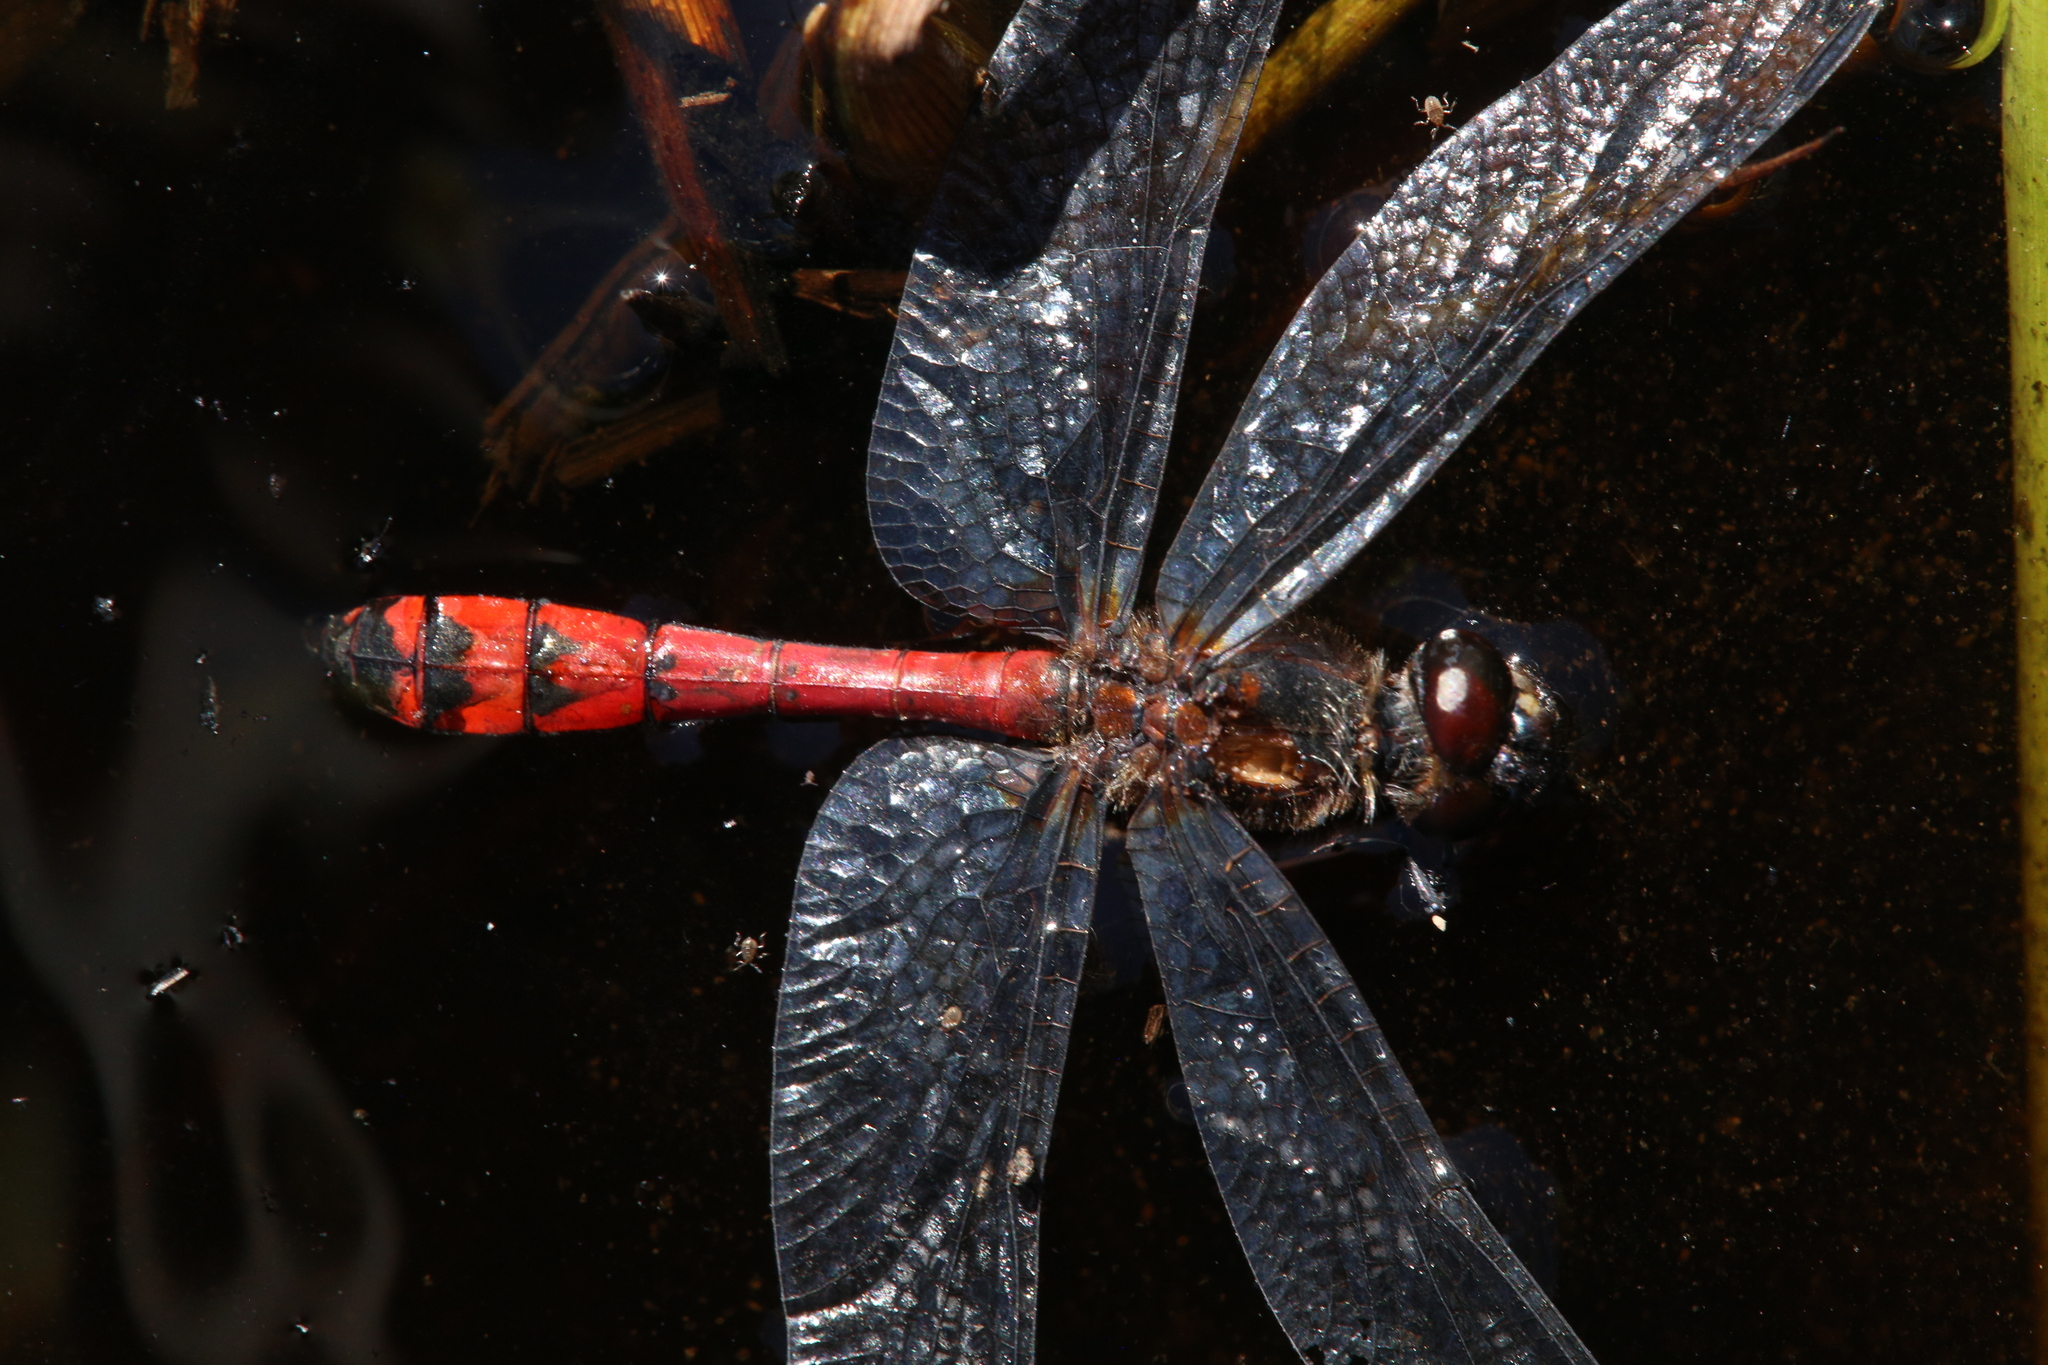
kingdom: Animalia
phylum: Arthropoda
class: Insecta
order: Odonata
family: Libellulidae
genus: Austrothemis
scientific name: Austrothemis nigrescens
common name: Swamp flat-tail
